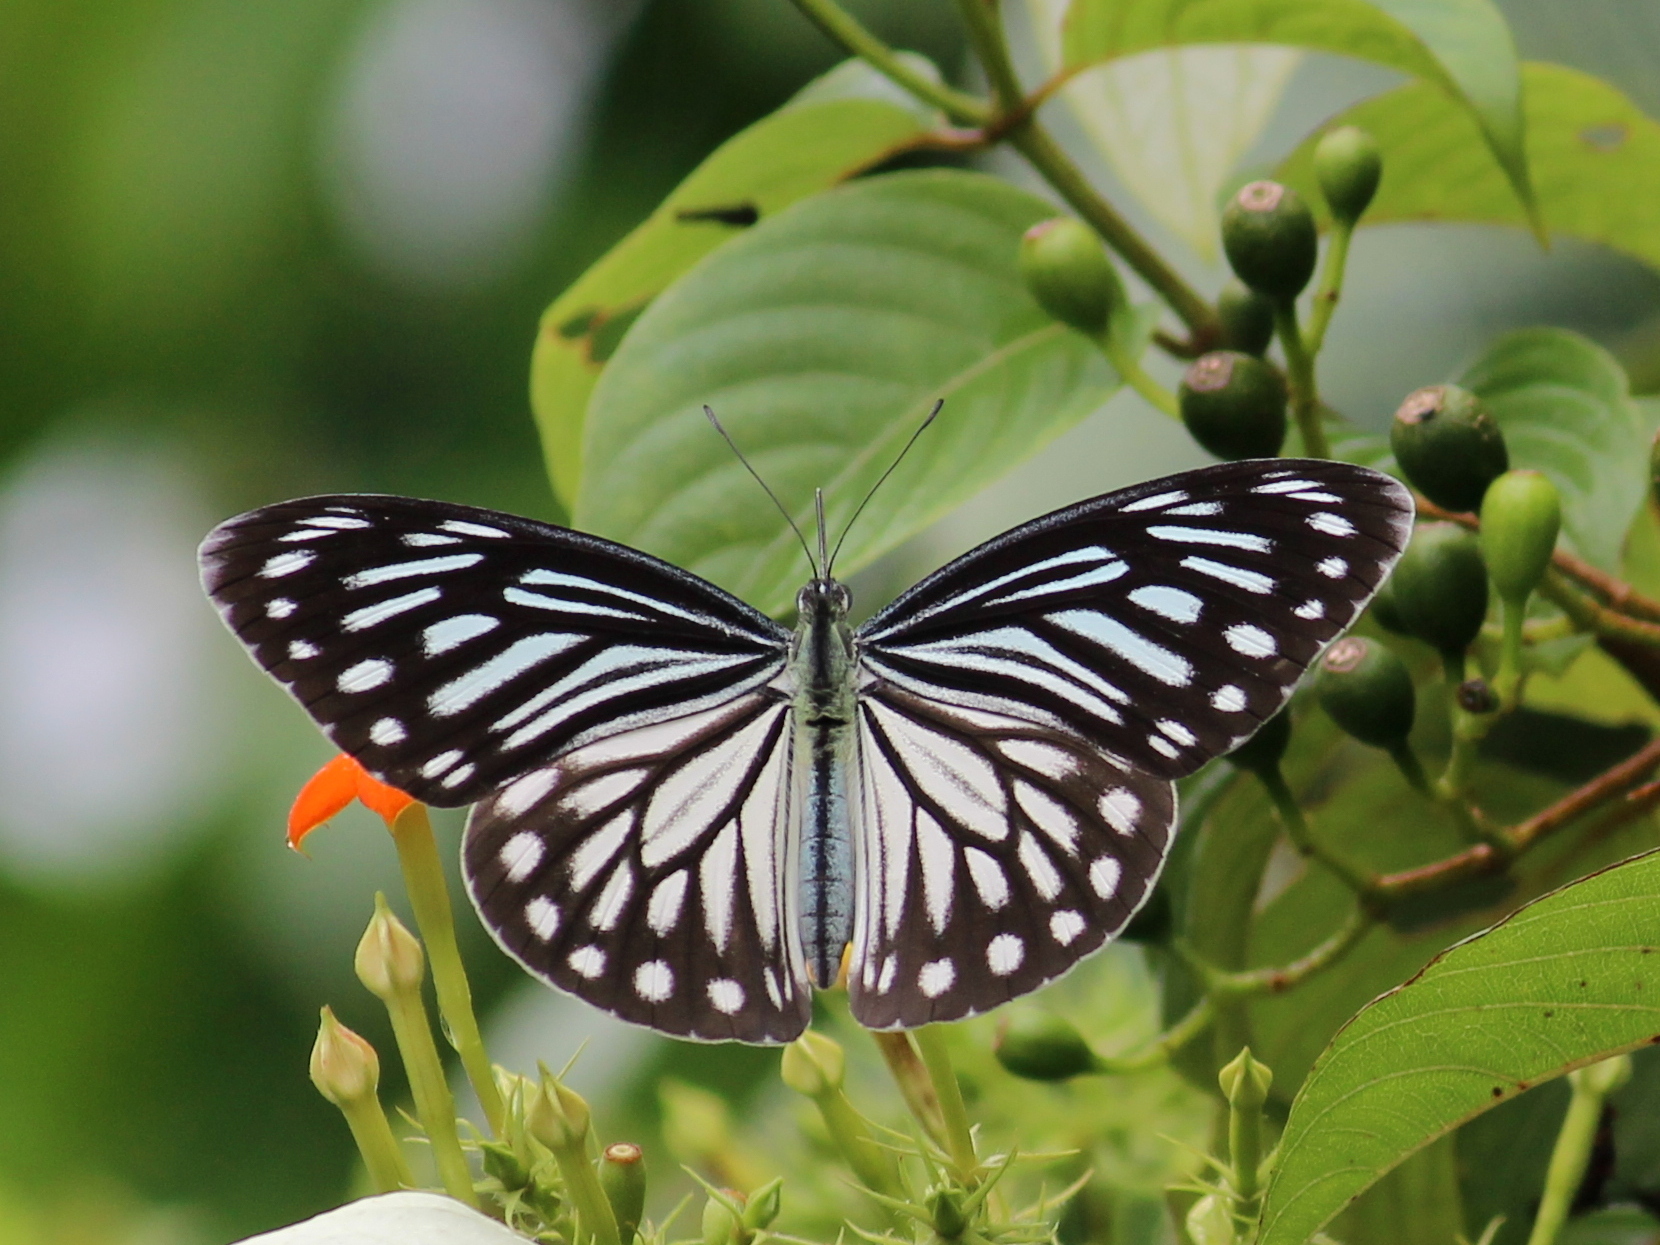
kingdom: Animalia
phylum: Arthropoda
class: Insecta
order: Lepidoptera
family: Pieridae
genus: Pareronia
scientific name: Pareronia hippia
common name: Indian wanderer
